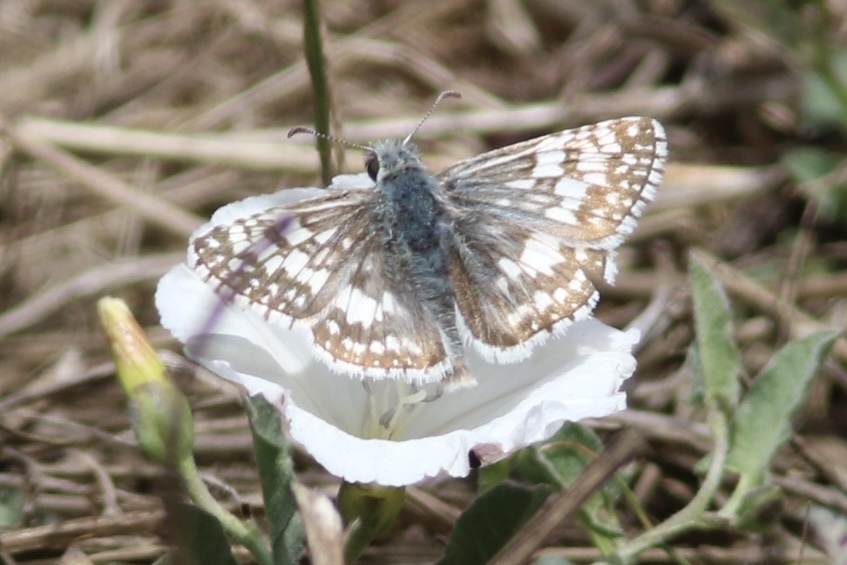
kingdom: Animalia
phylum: Arthropoda
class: Insecta
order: Lepidoptera
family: Hesperiidae
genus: Burnsius
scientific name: Burnsius communis
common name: Common checkered-skipper
